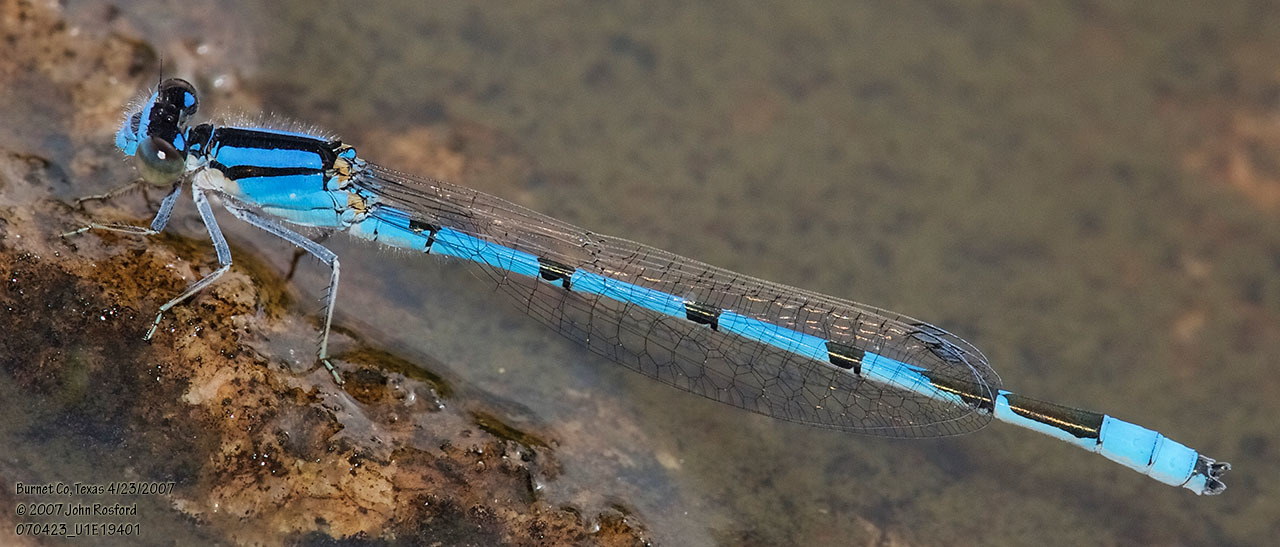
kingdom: Animalia
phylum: Arthropoda
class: Insecta
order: Odonata
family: Coenagrionidae
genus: Enallagma
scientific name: Enallagma civile
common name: Damselfly
